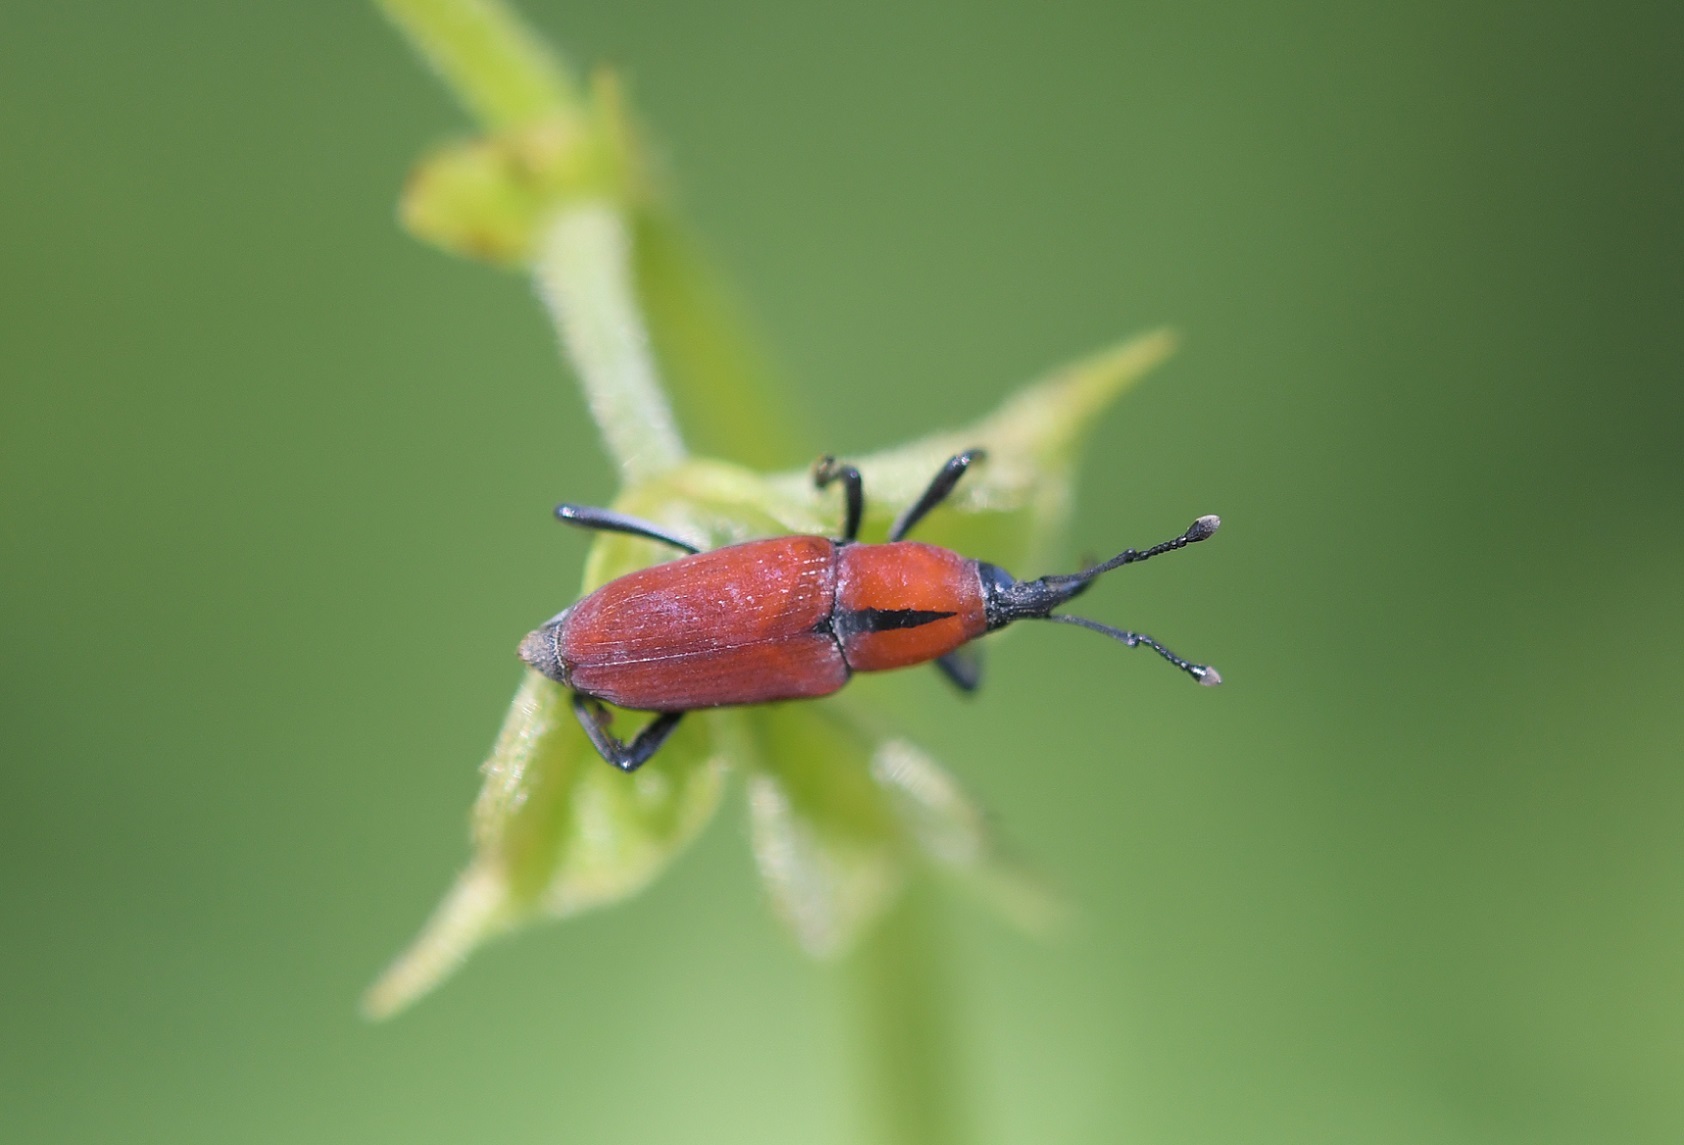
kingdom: Animalia
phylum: Arthropoda
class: Insecta
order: Coleoptera
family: Dryophthoridae
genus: Rhodobaenus
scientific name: Rhodobaenus sanguineus
